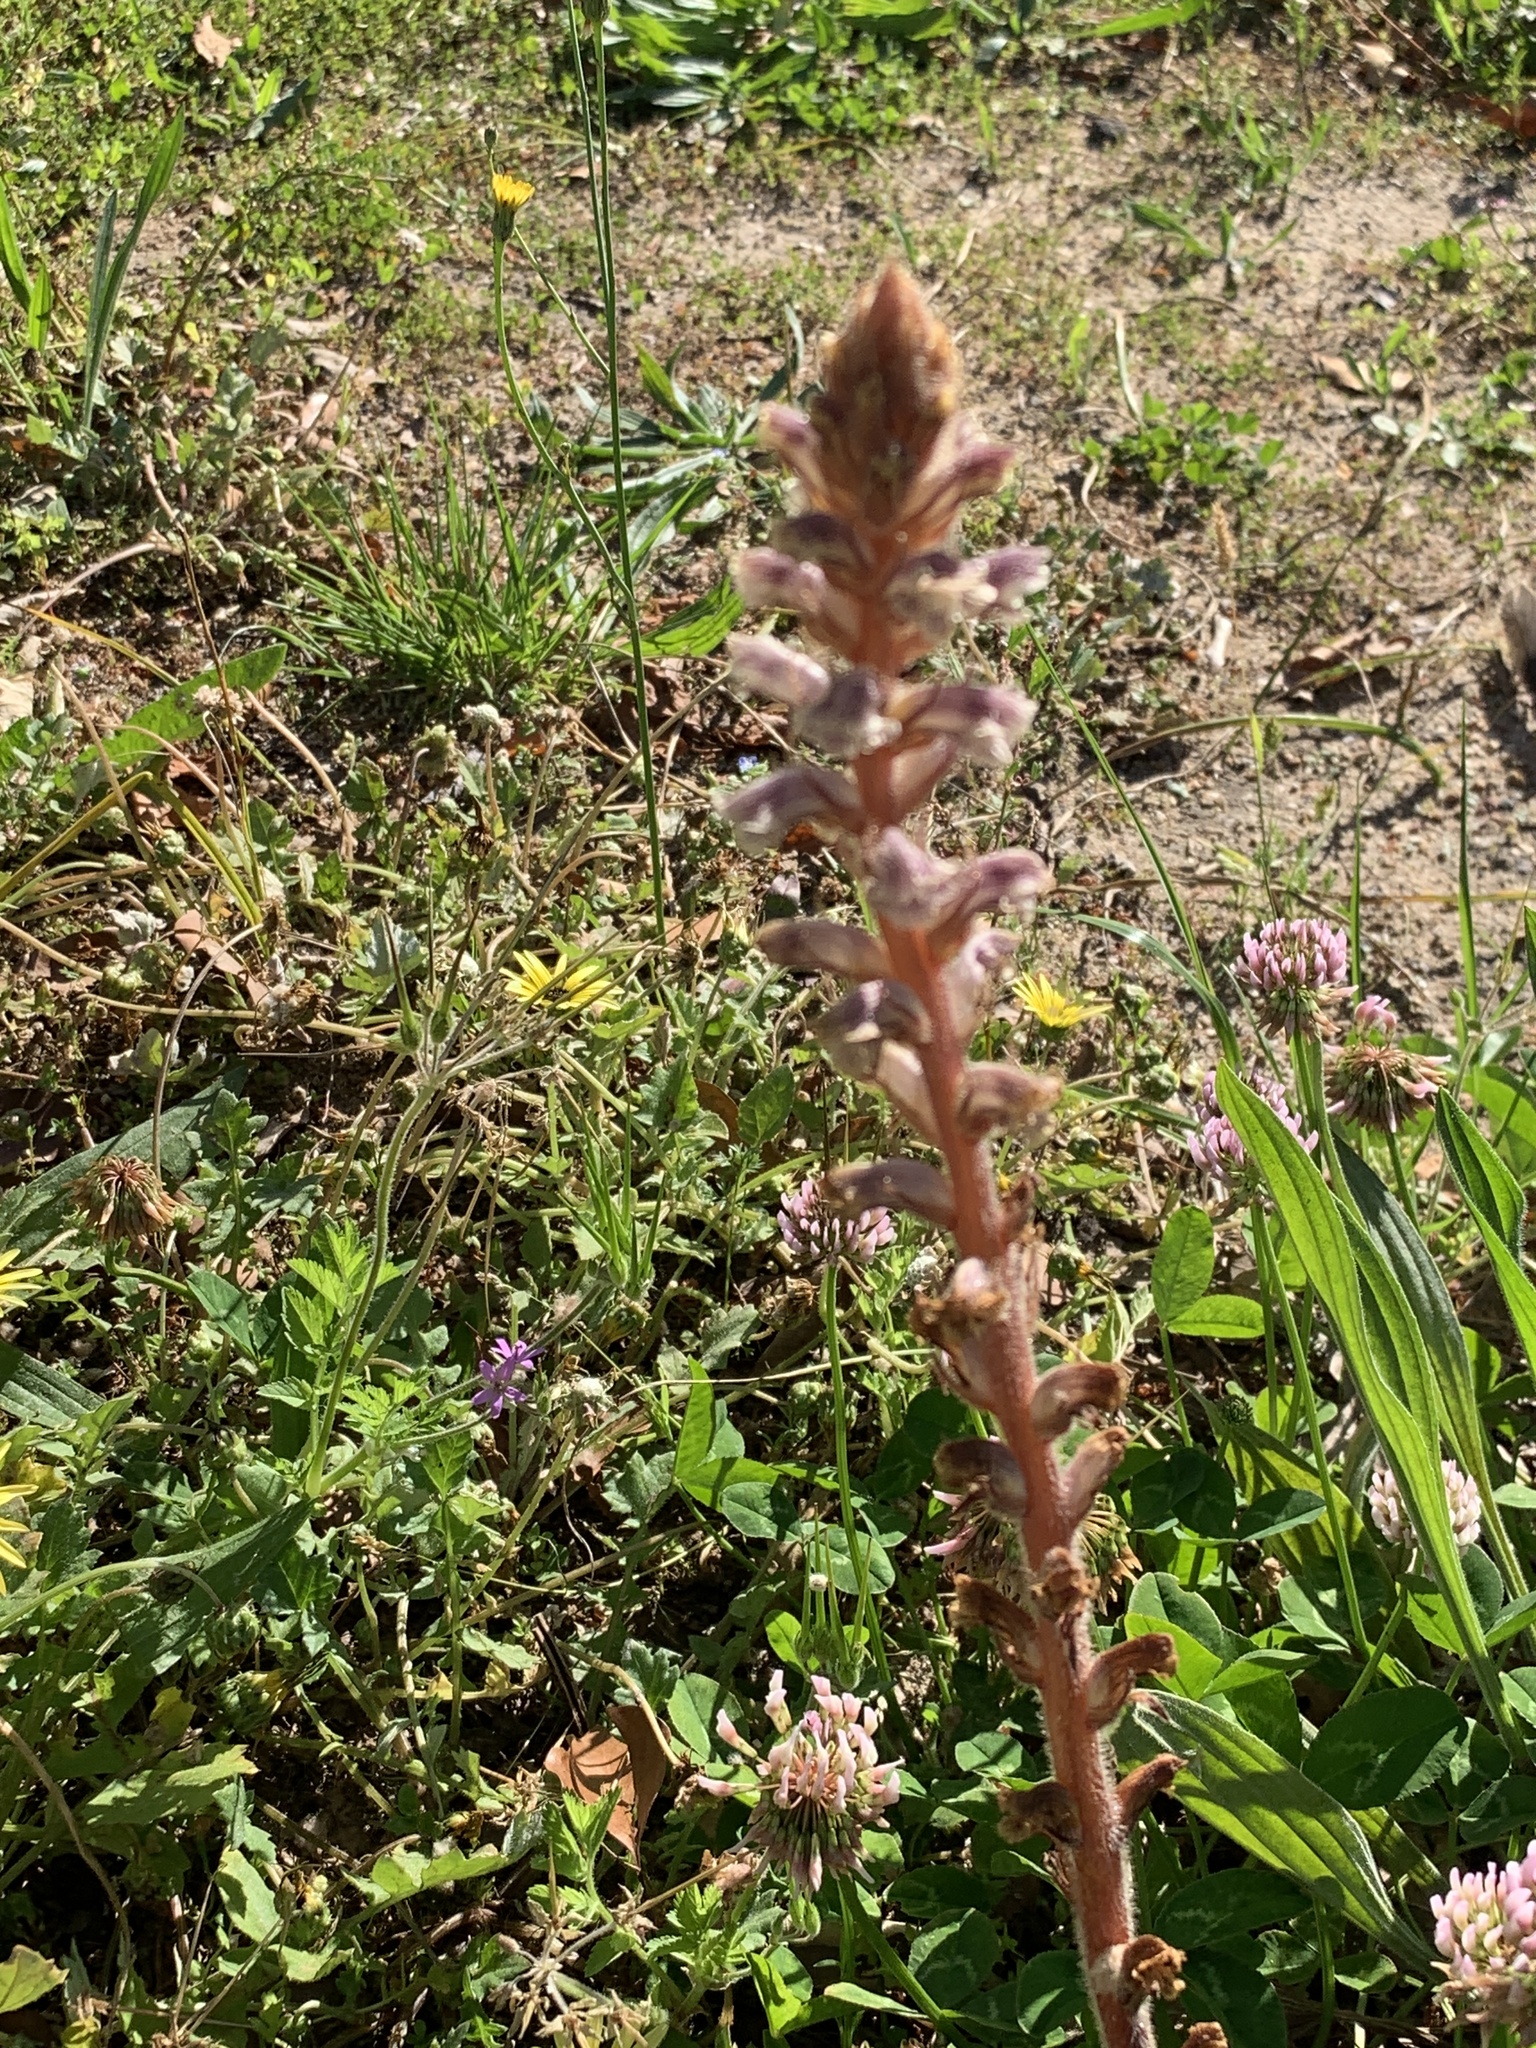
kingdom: Plantae
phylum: Tracheophyta
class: Magnoliopsida
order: Lamiales
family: Orobanchaceae
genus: Orobanche
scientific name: Orobanche minor
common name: Common broomrape
